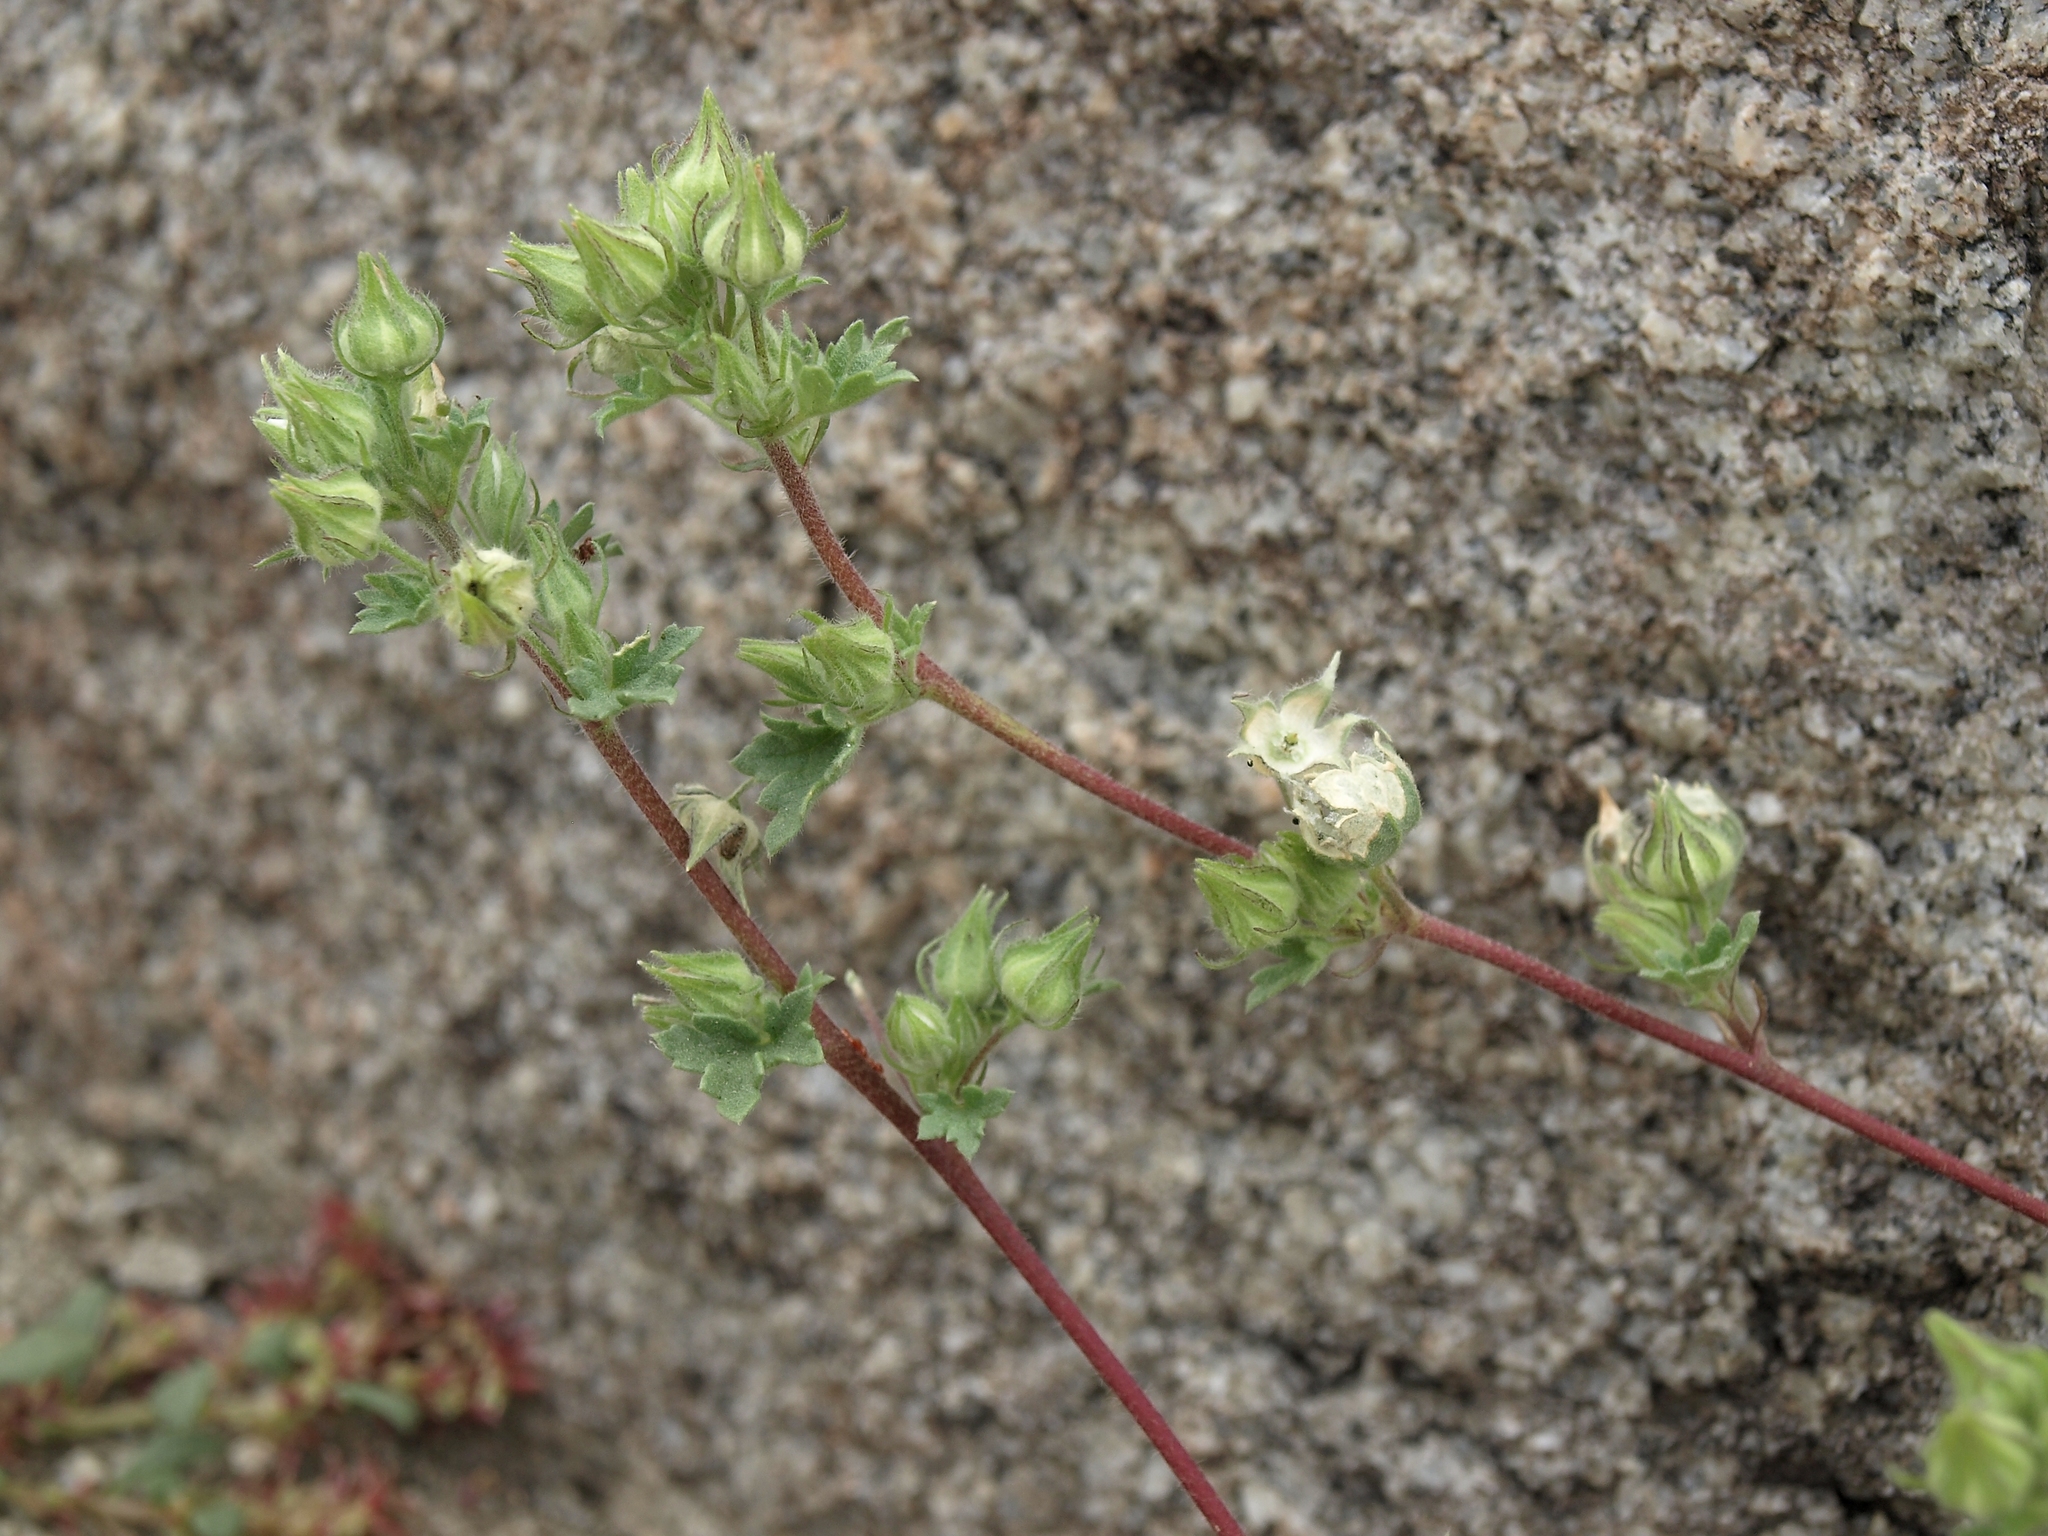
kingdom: Plantae
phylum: Tracheophyta
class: Magnoliopsida
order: Malvales
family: Malvaceae
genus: Eremalche
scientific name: Eremalche exilis
